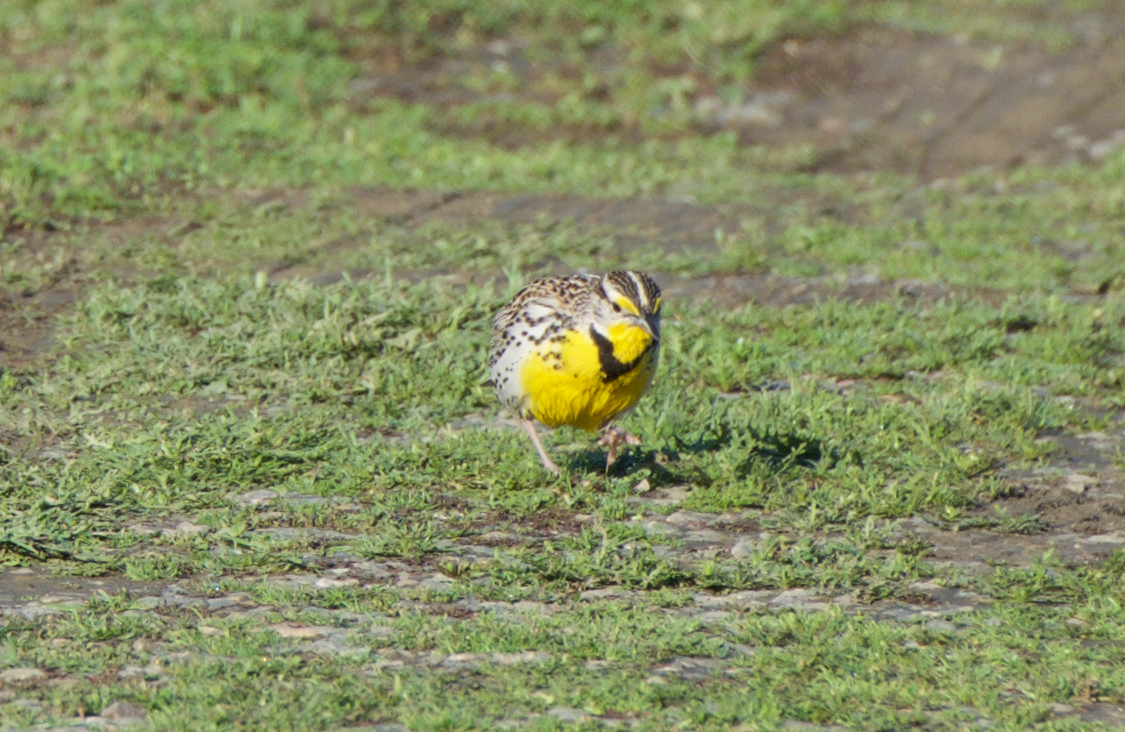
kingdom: Animalia
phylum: Chordata
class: Aves
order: Passeriformes
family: Icteridae
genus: Sturnella
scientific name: Sturnella neglecta
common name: Western meadowlark
